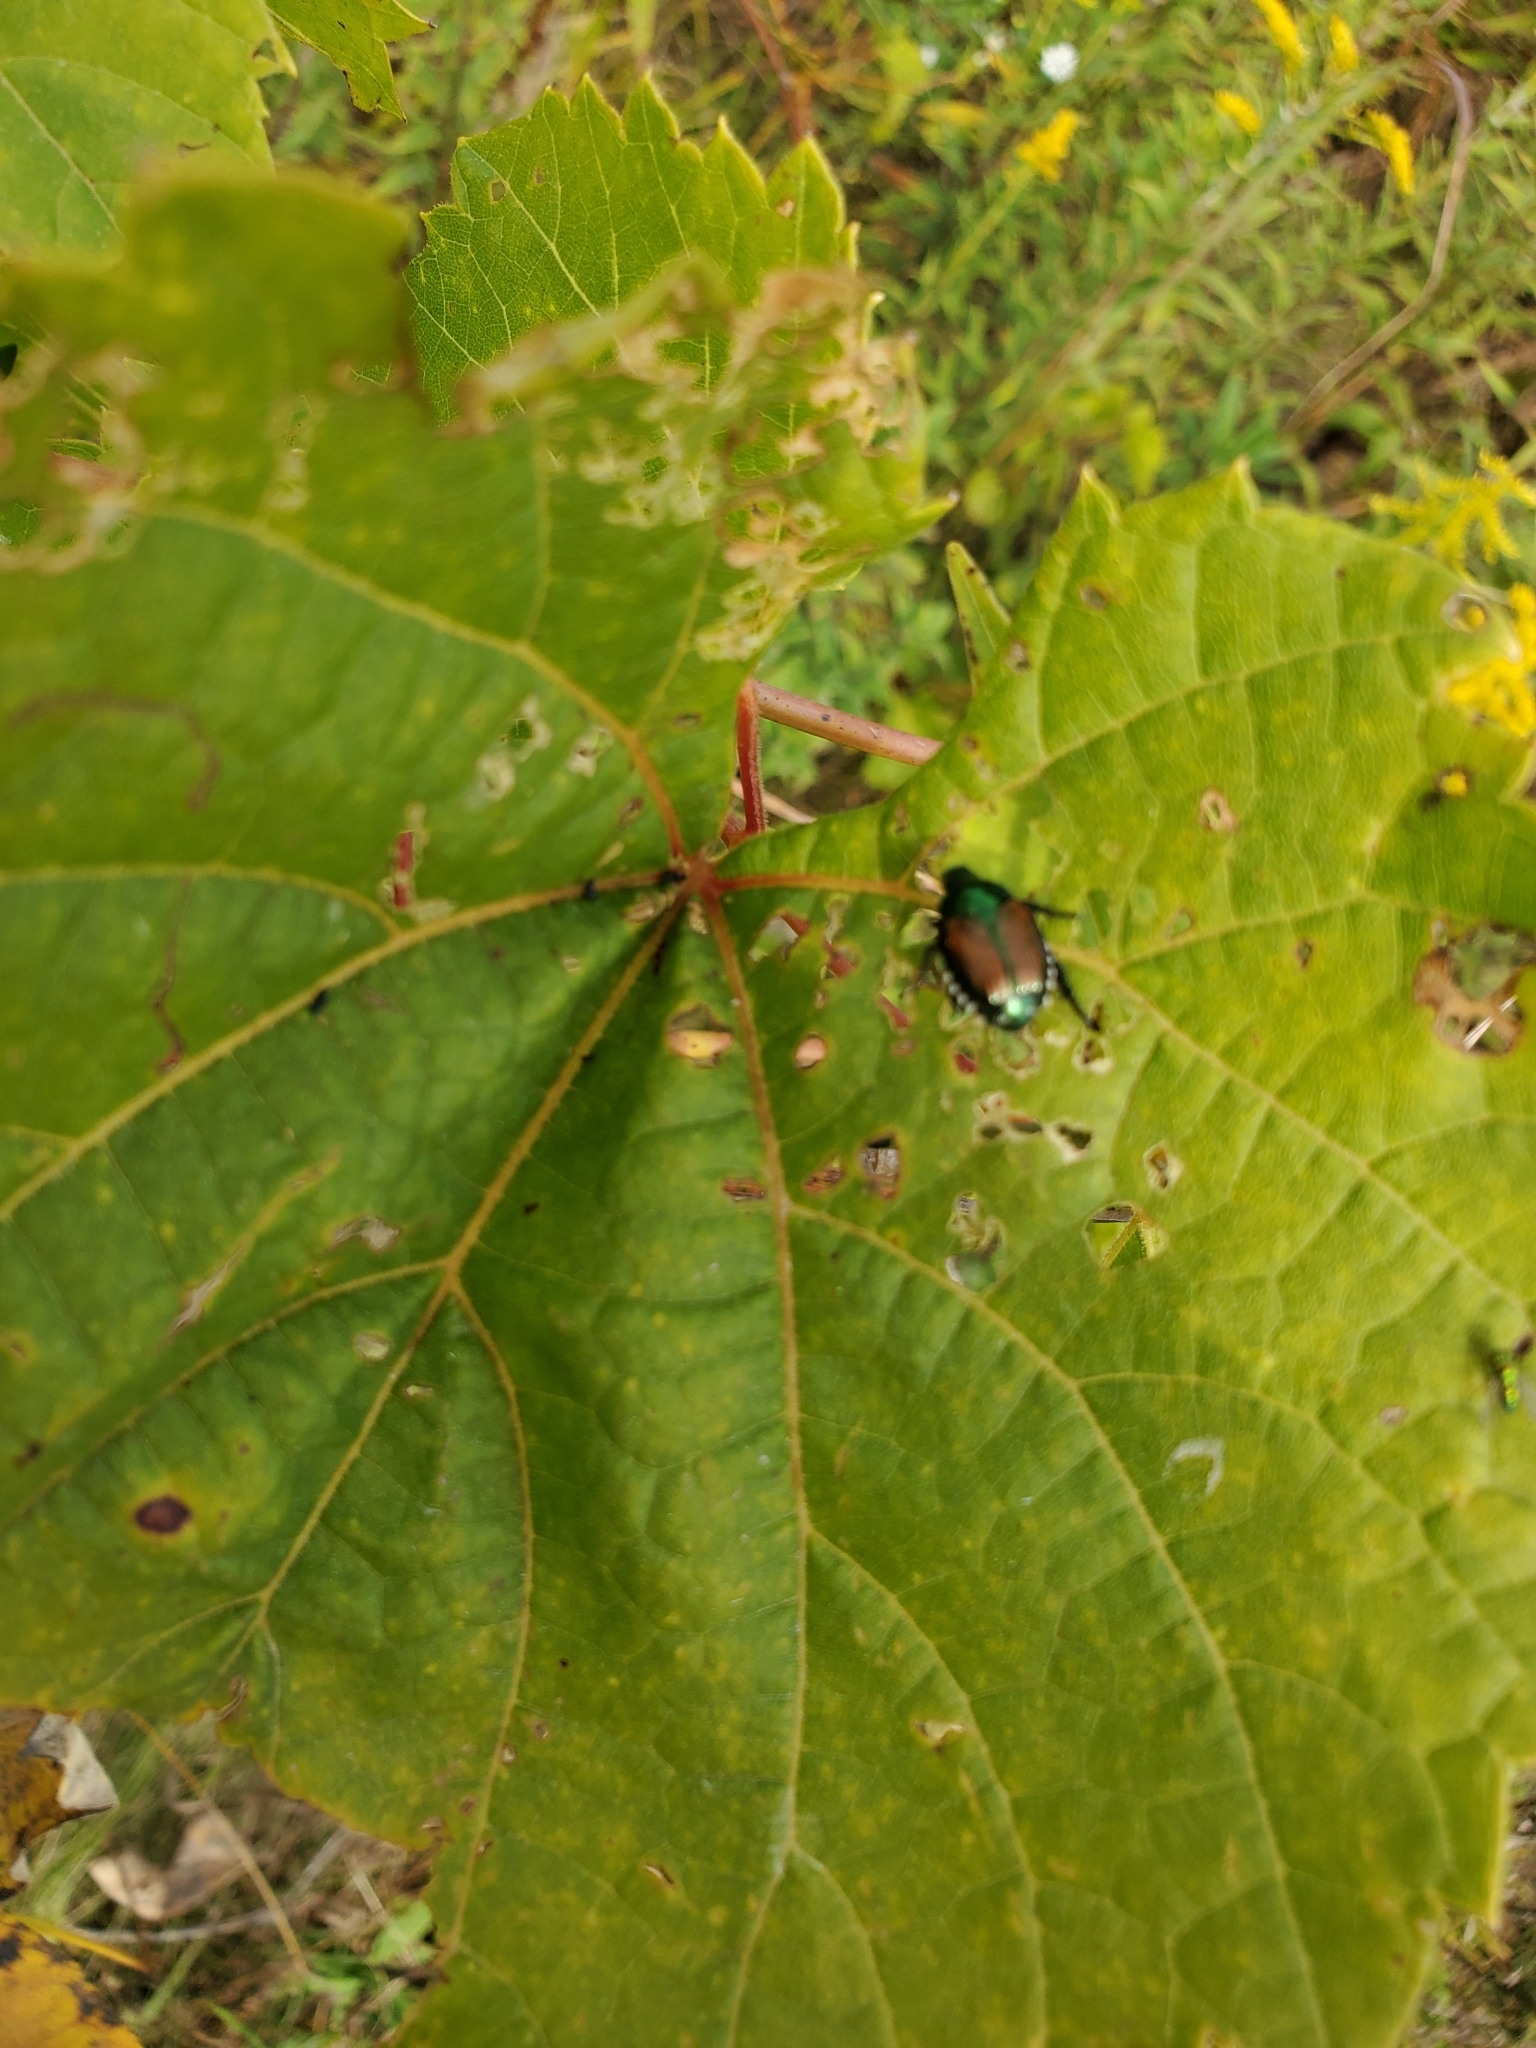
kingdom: Animalia
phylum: Arthropoda
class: Insecta
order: Coleoptera
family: Scarabaeidae
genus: Popillia
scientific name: Popillia japonica
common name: Japanese beetle
